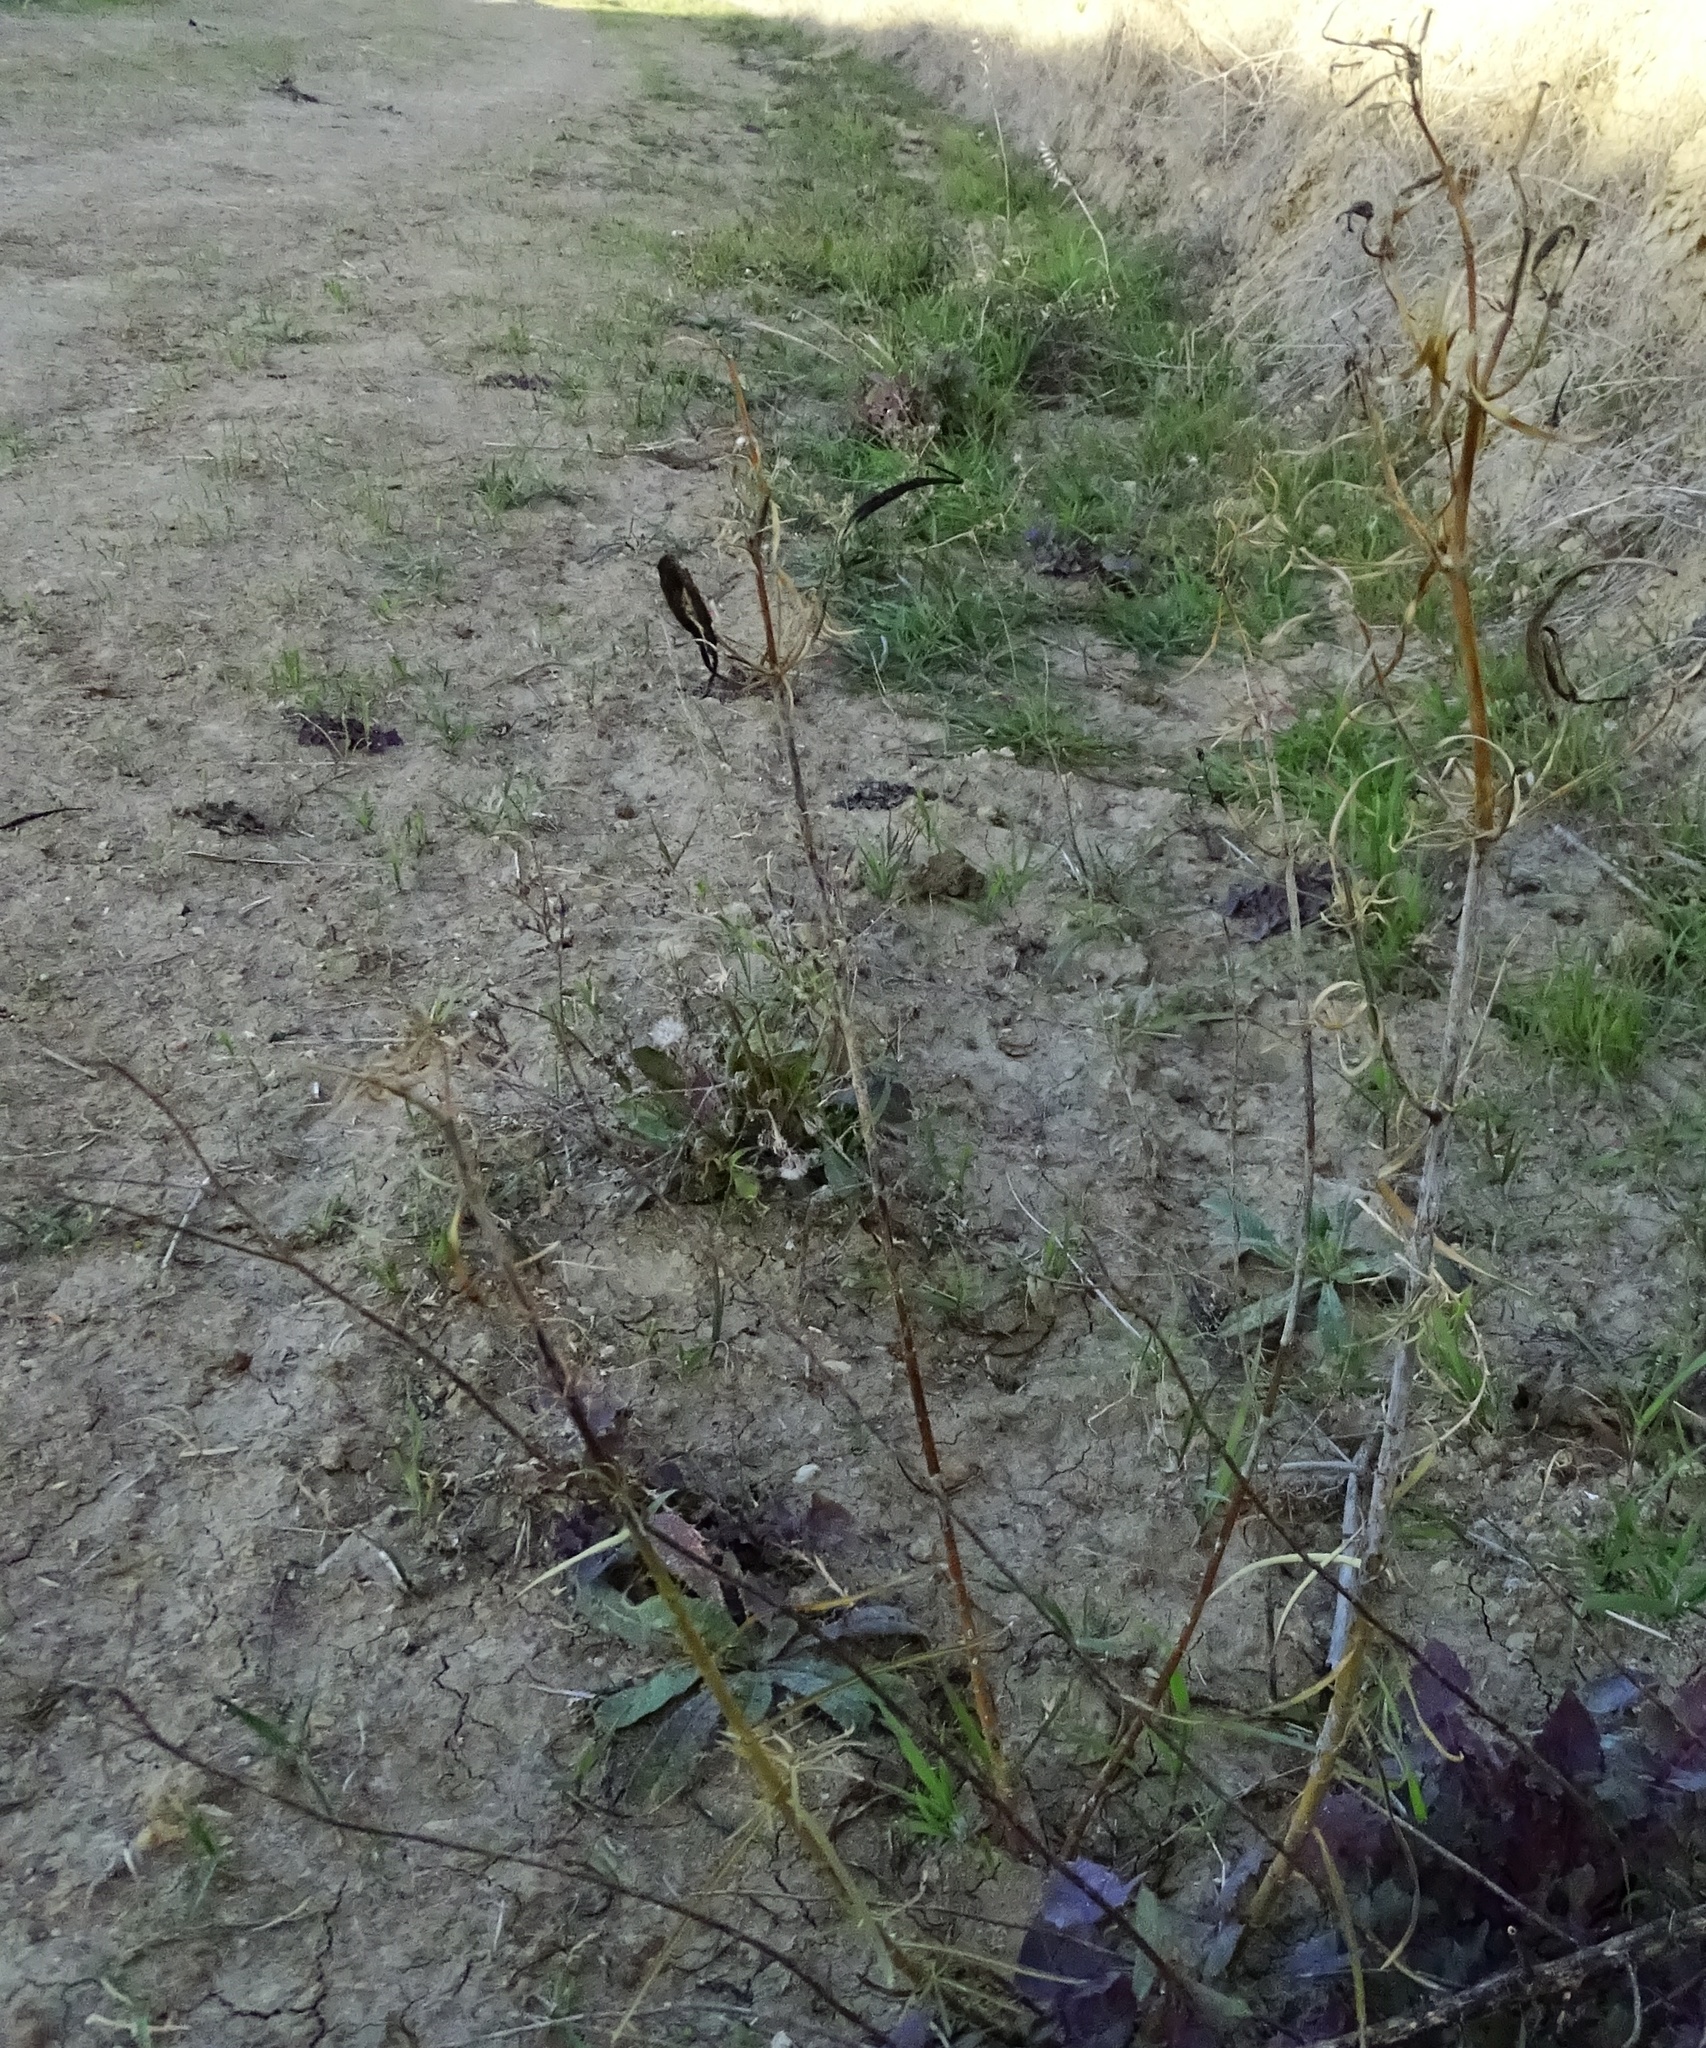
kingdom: Plantae
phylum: Tracheophyta
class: Magnoliopsida
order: Gentianales
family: Apocynaceae
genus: Asclepias
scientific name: Asclepias fascicularis
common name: Mexican milkweed
